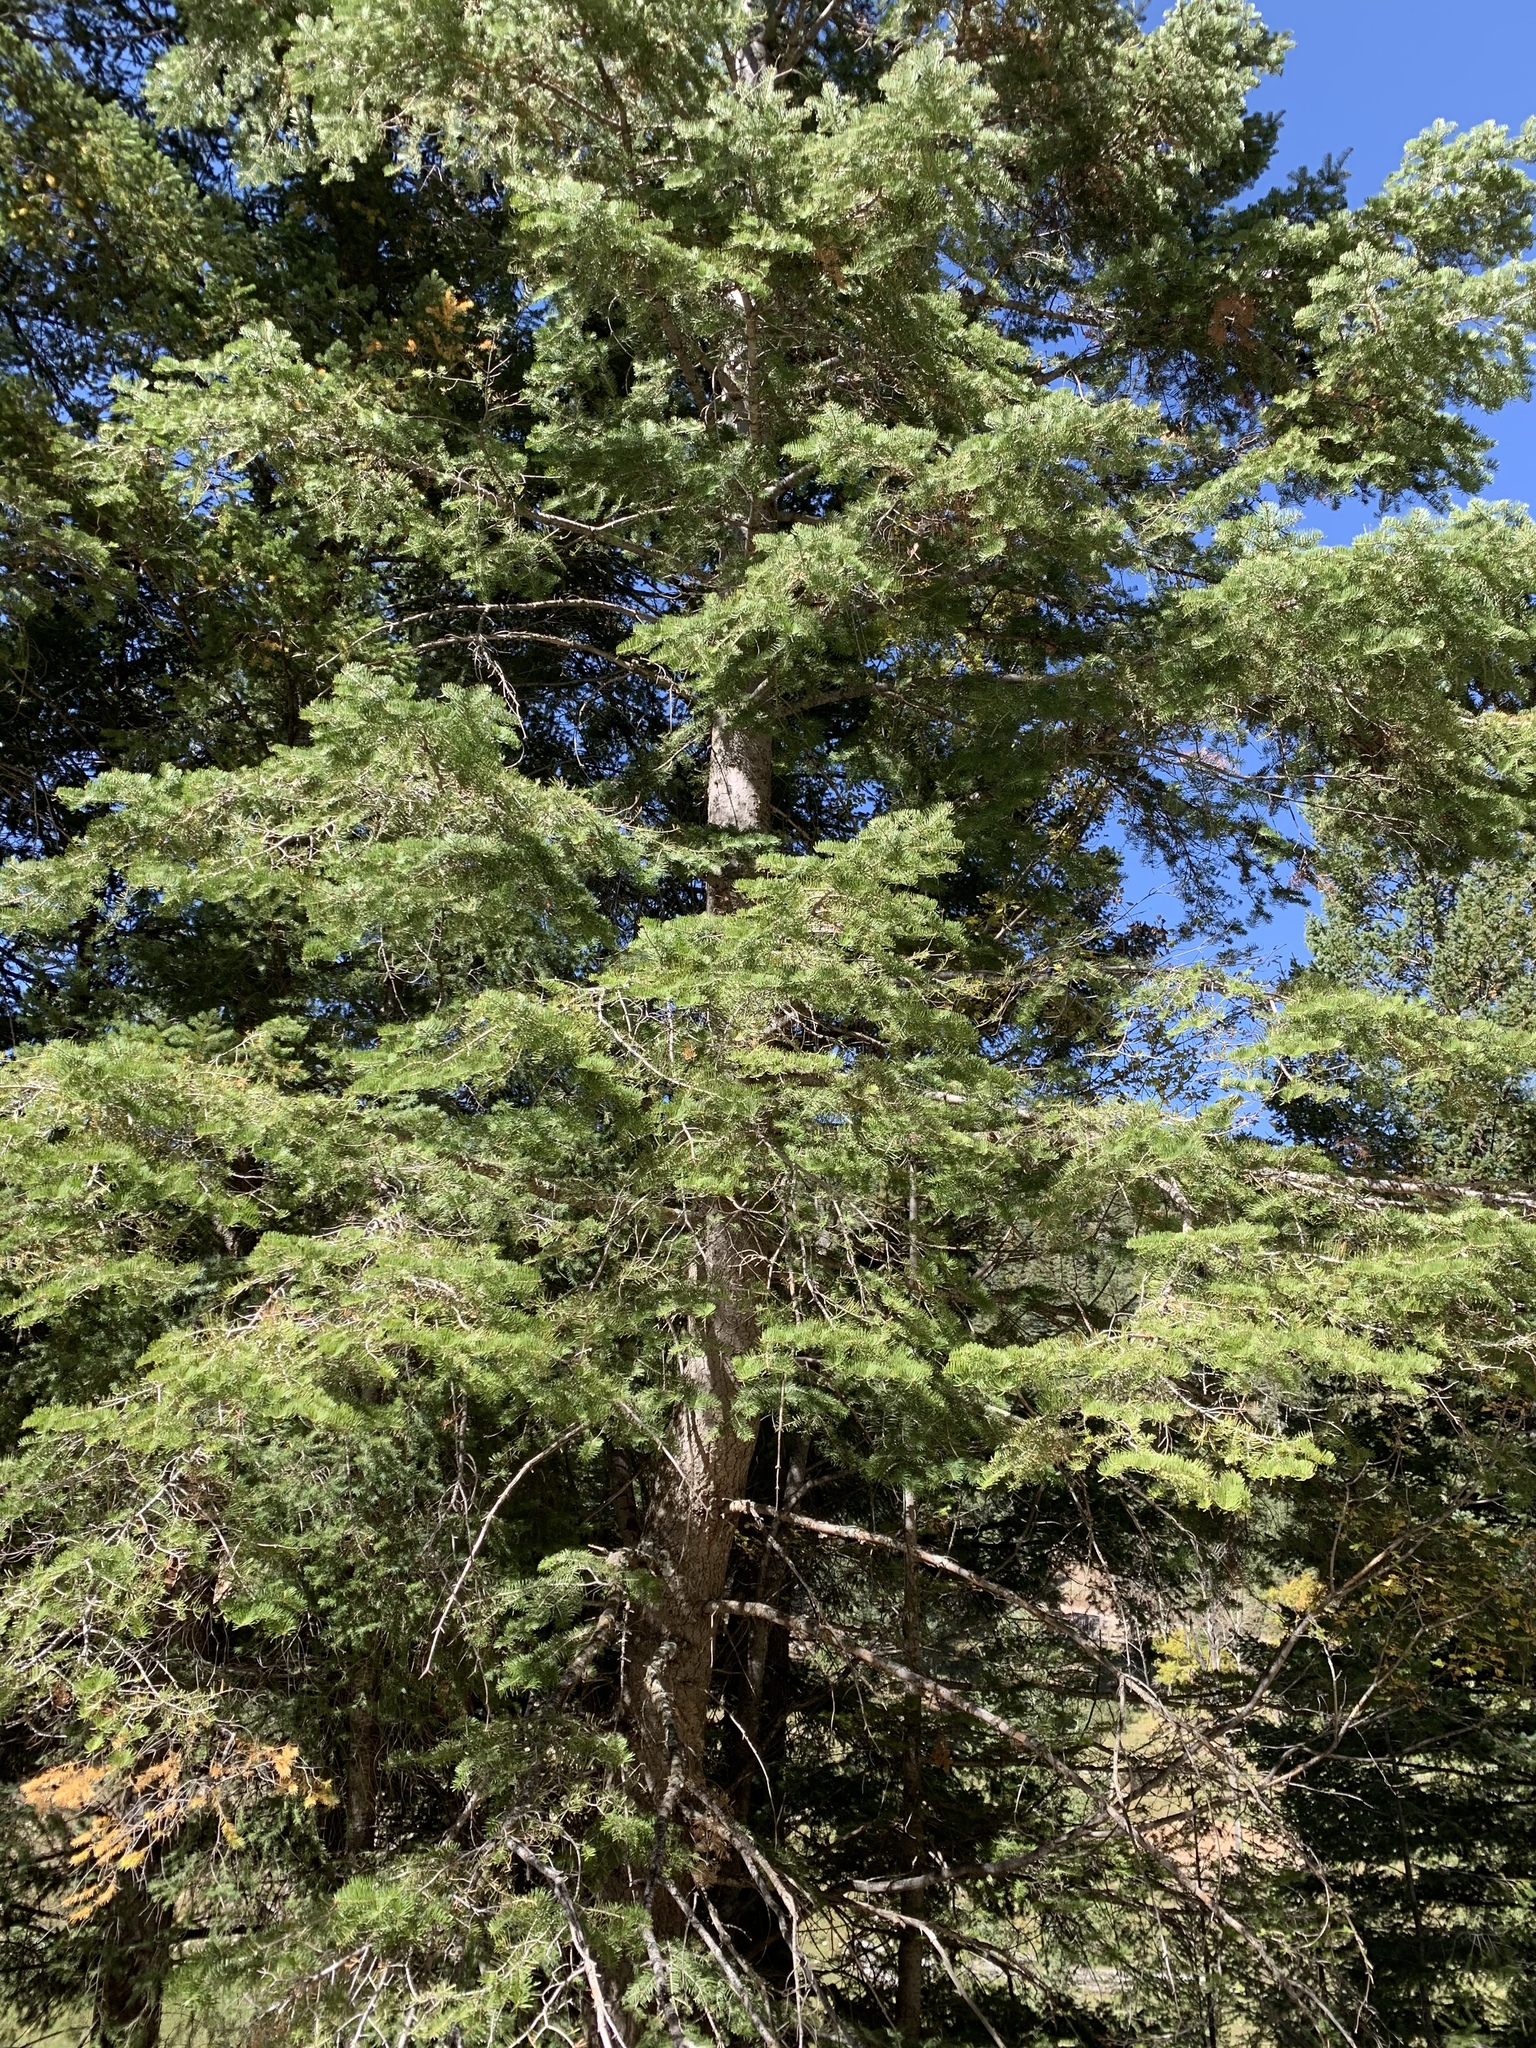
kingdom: Plantae
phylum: Tracheophyta
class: Pinopsida
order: Pinales
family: Pinaceae
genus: Abies
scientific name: Abies concolor
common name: Colorado fir
